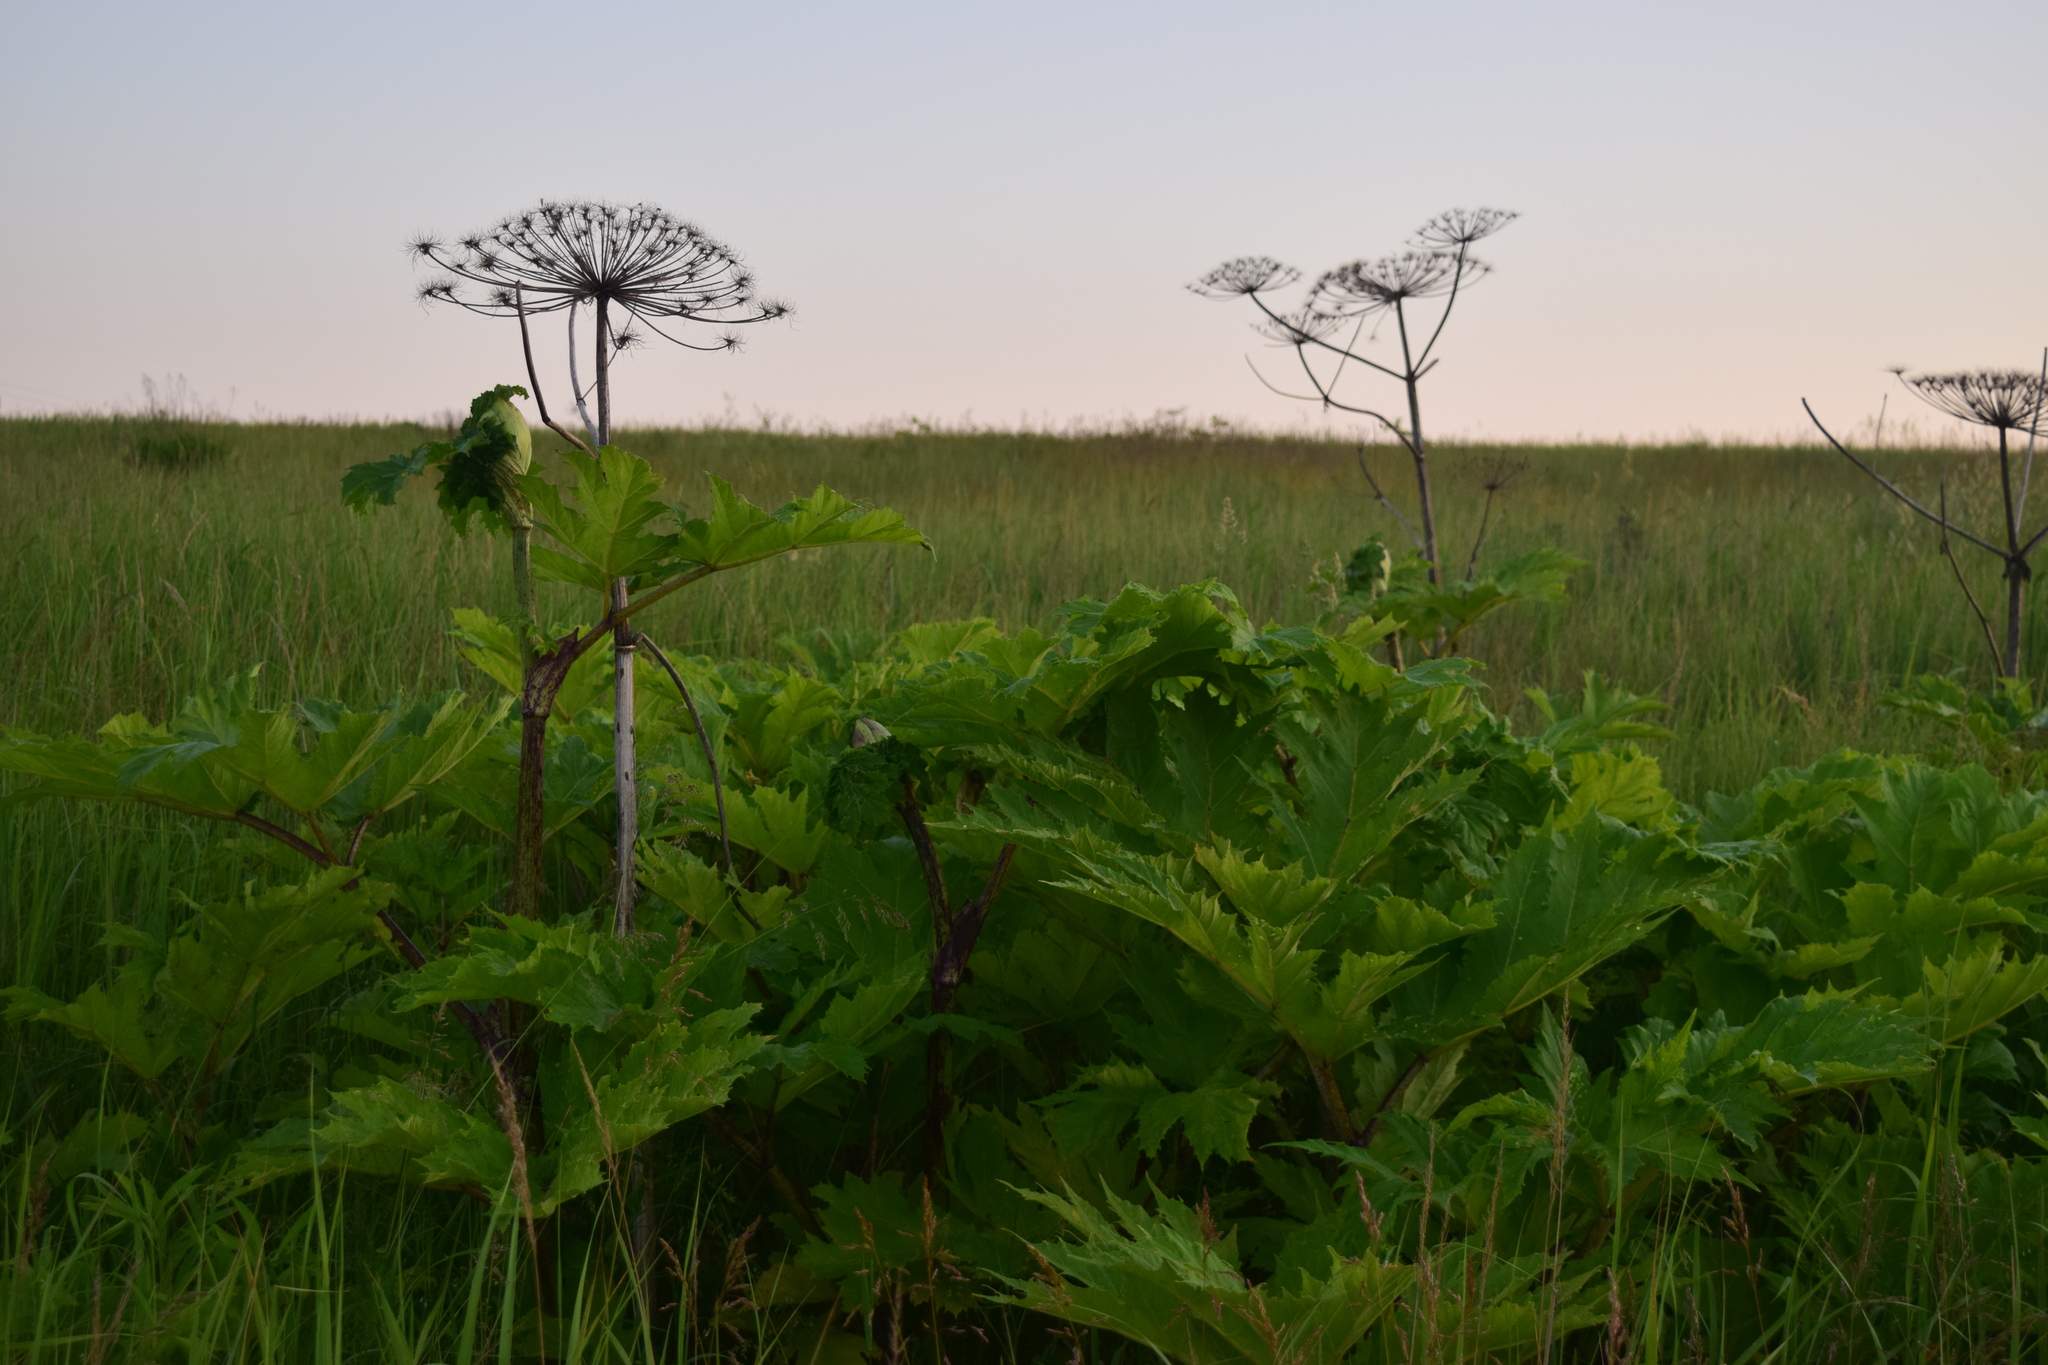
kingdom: Plantae
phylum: Tracheophyta
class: Magnoliopsida
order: Apiales
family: Apiaceae
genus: Heracleum
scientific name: Heracleum sosnowskyi
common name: Sosnowsky's hogweed
